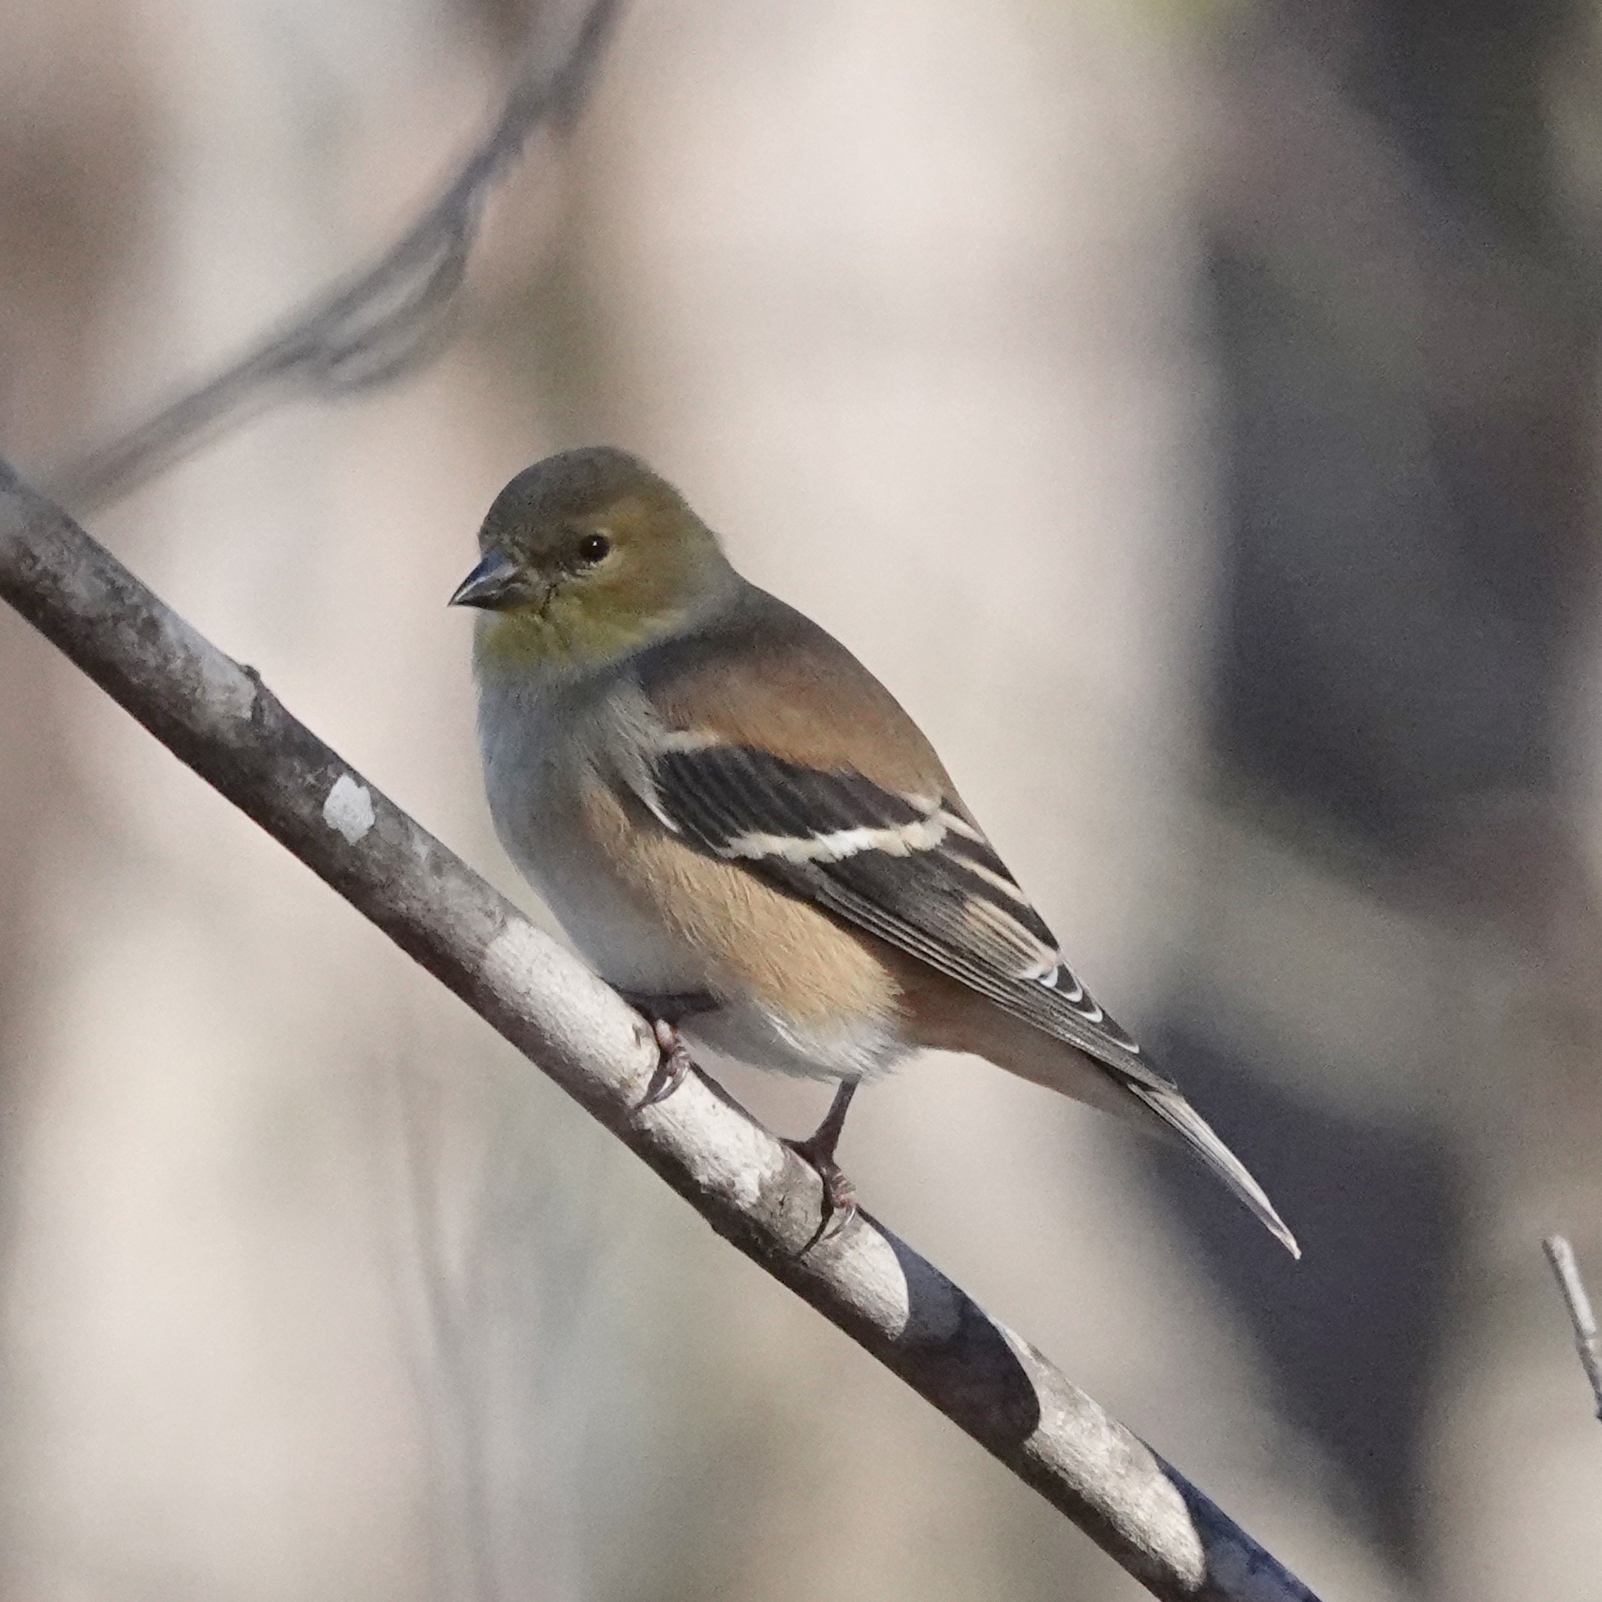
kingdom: Animalia
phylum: Chordata
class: Aves
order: Passeriformes
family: Fringillidae
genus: Spinus
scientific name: Spinus tristis
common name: American goldfinch
